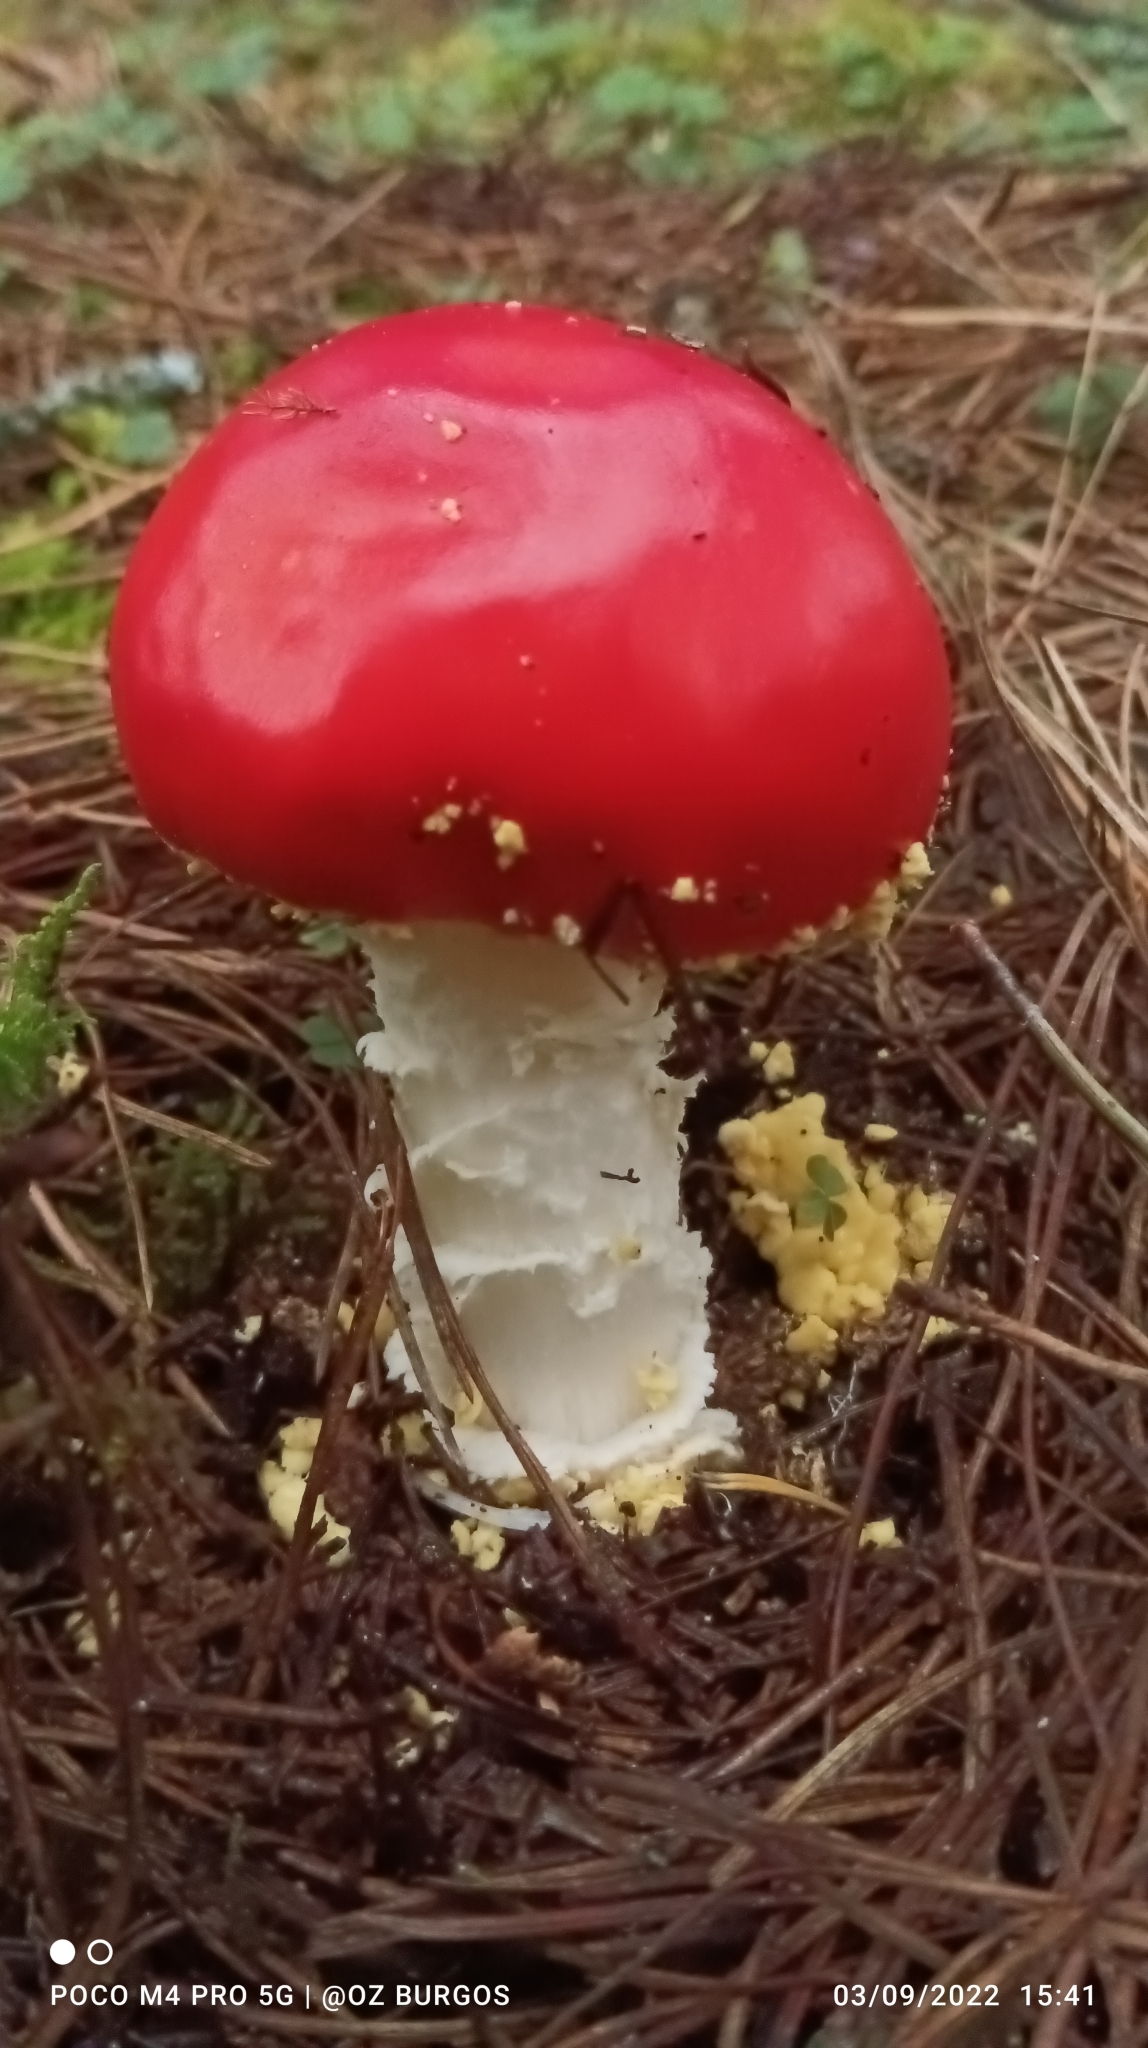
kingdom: Fungi
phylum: Basidiomycota
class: Agaricomycetes
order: Agaricales
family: Amanitaceae
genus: Amanita
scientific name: Amanita muscaria
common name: Fly agaric
